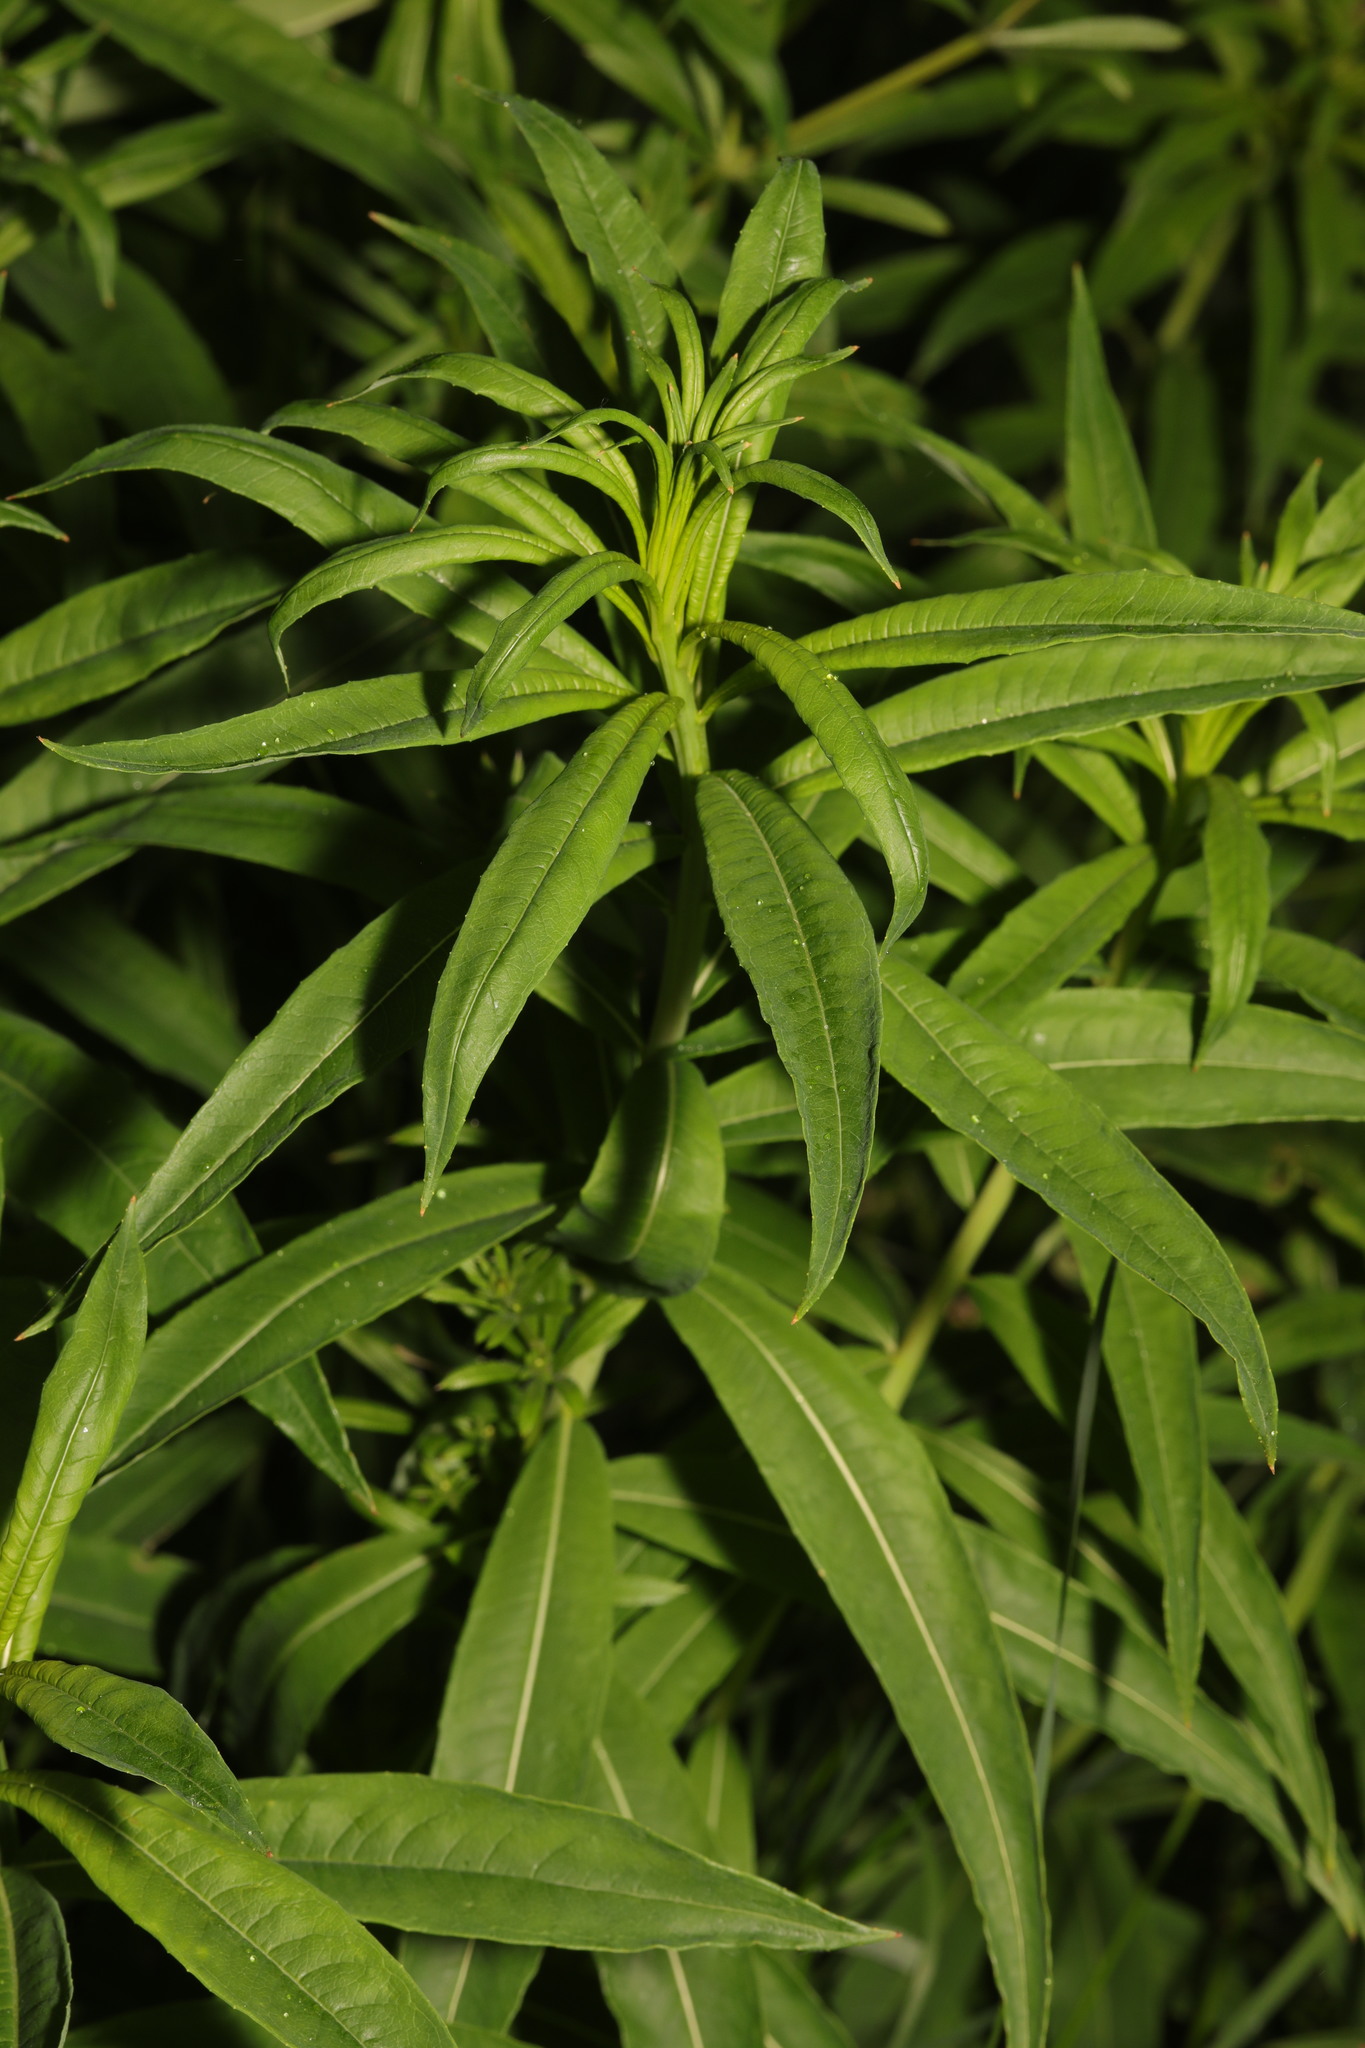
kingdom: Plantae
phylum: Tracheophyta
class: Magnoliopsida
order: Myrtales
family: Onagraceae
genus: Chamaenerion
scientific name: Chamaenerion angustifolium
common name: Fireweed
